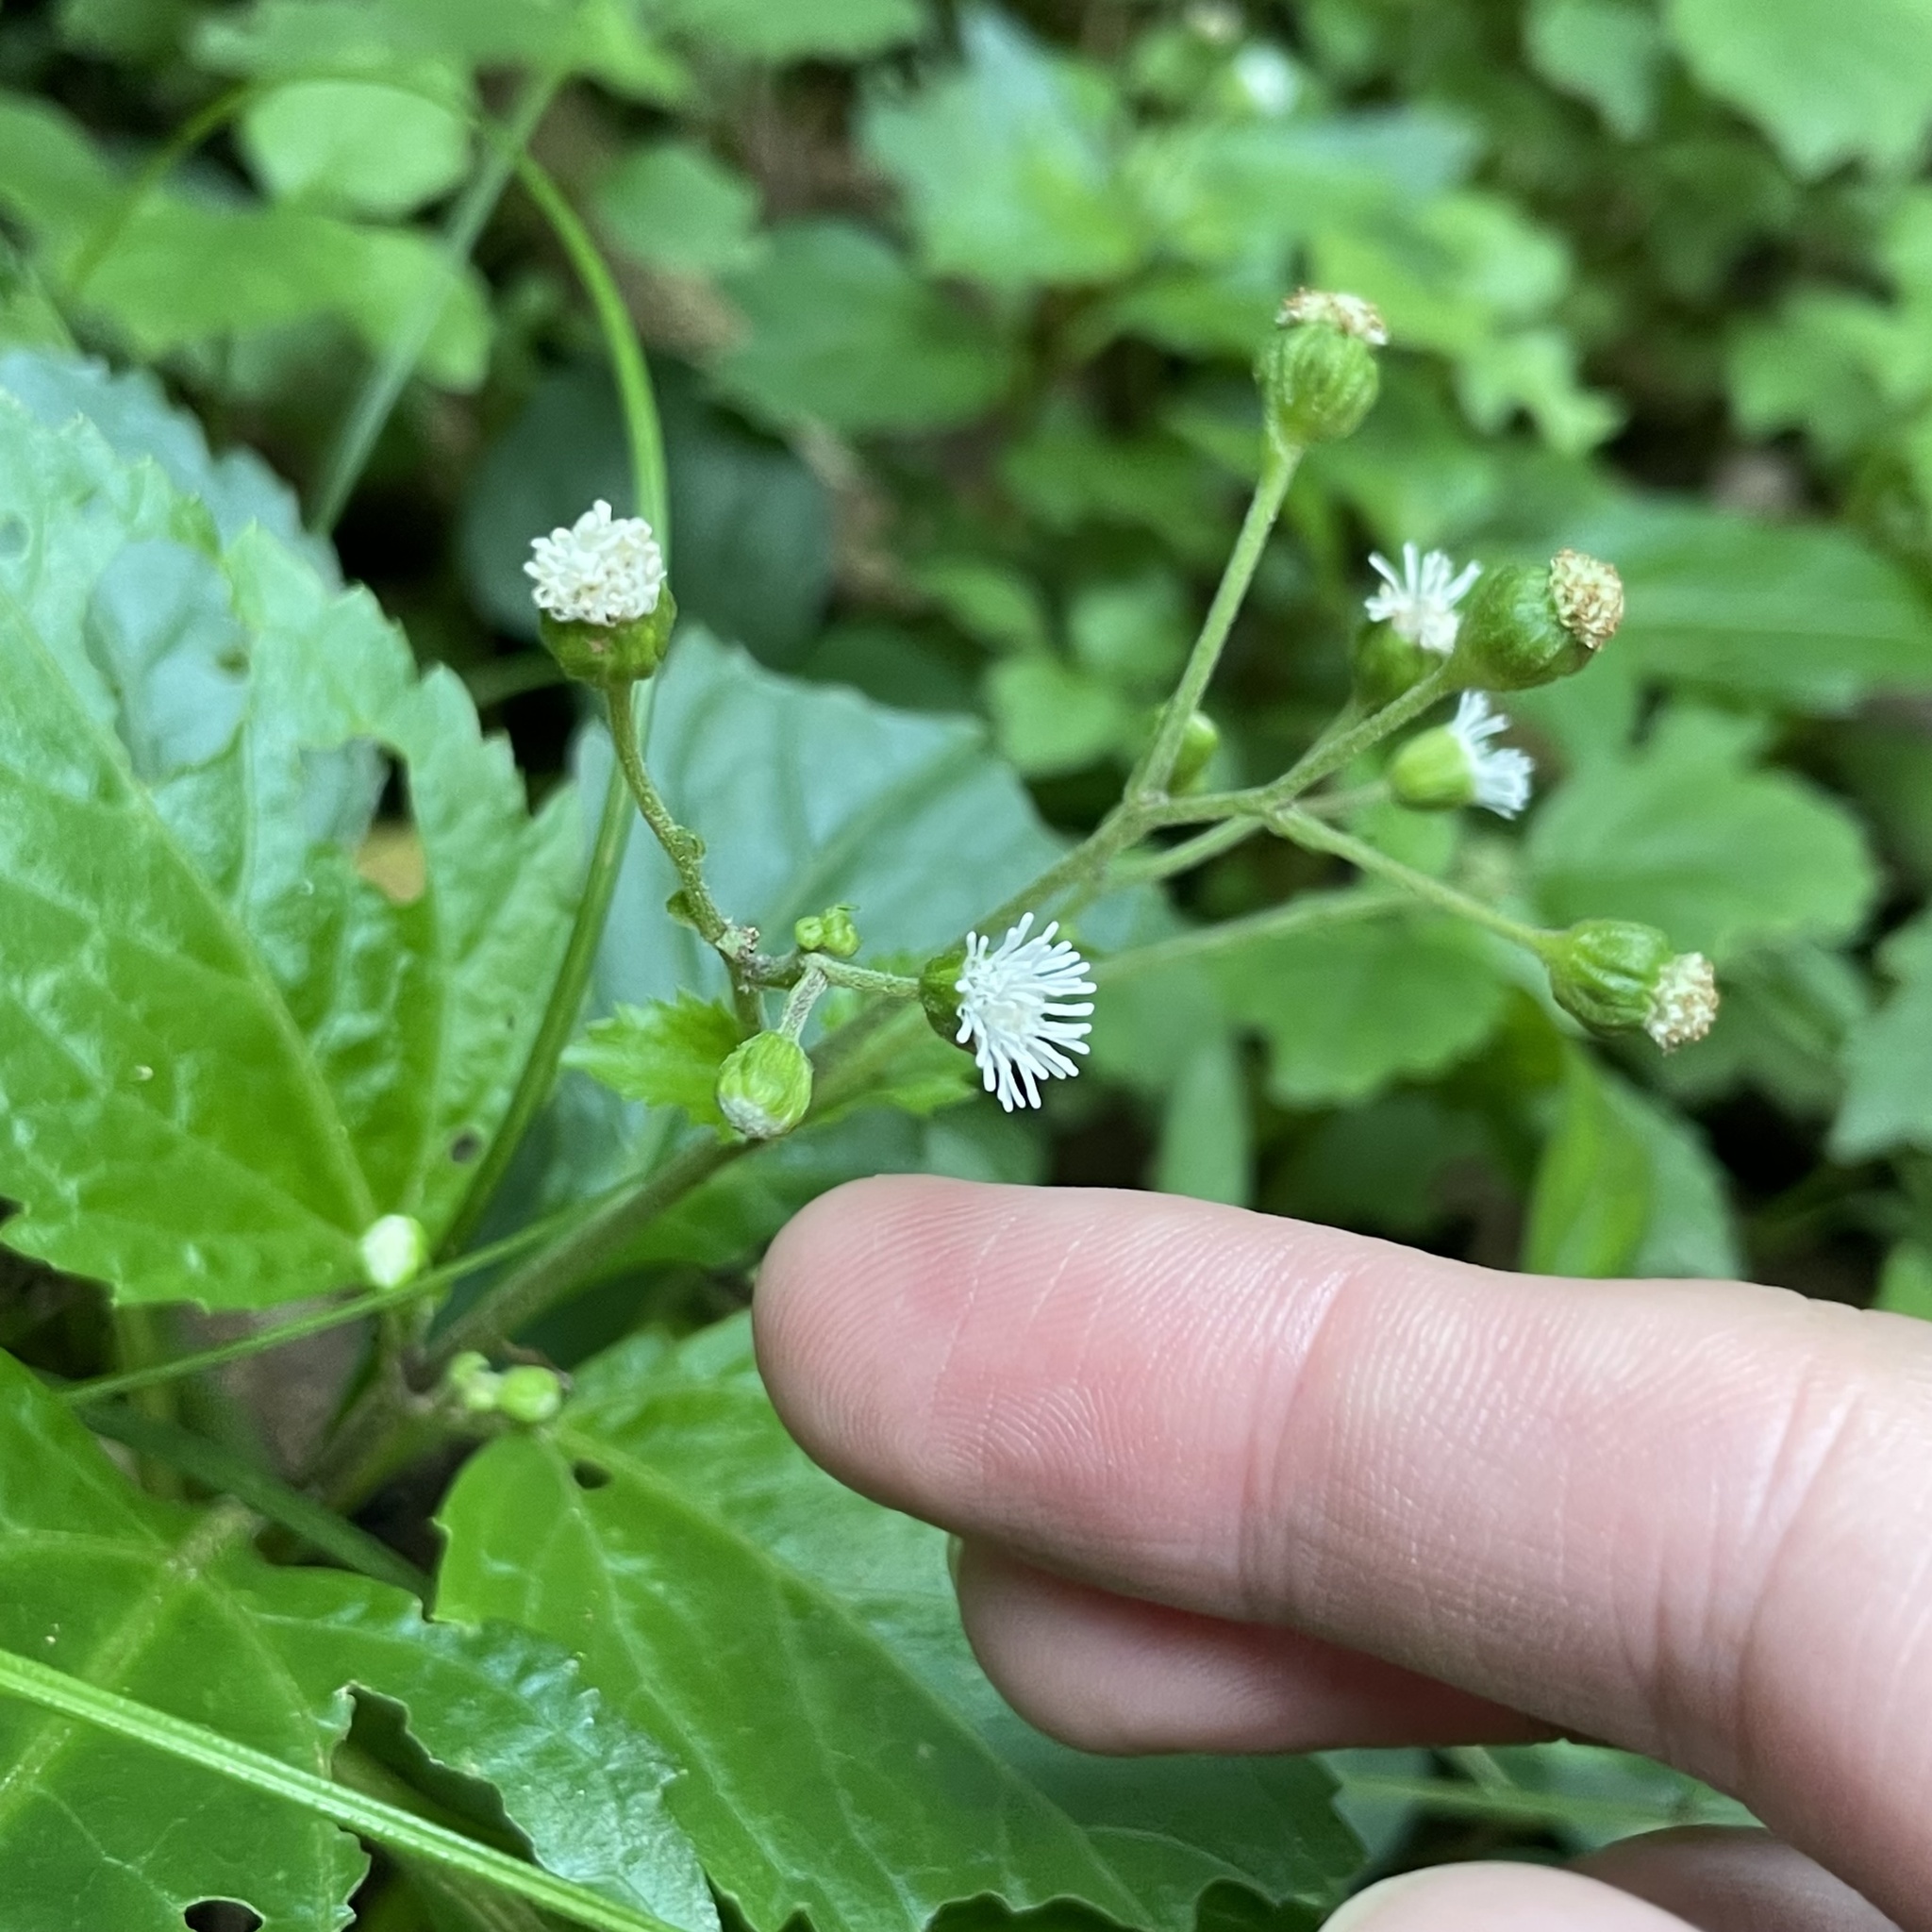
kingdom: Plantae
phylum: Tracheophyta
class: Magnoliopsida
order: Asterales
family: Asteraceae
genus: Adenostemma
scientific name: Adenostemma lavenia
